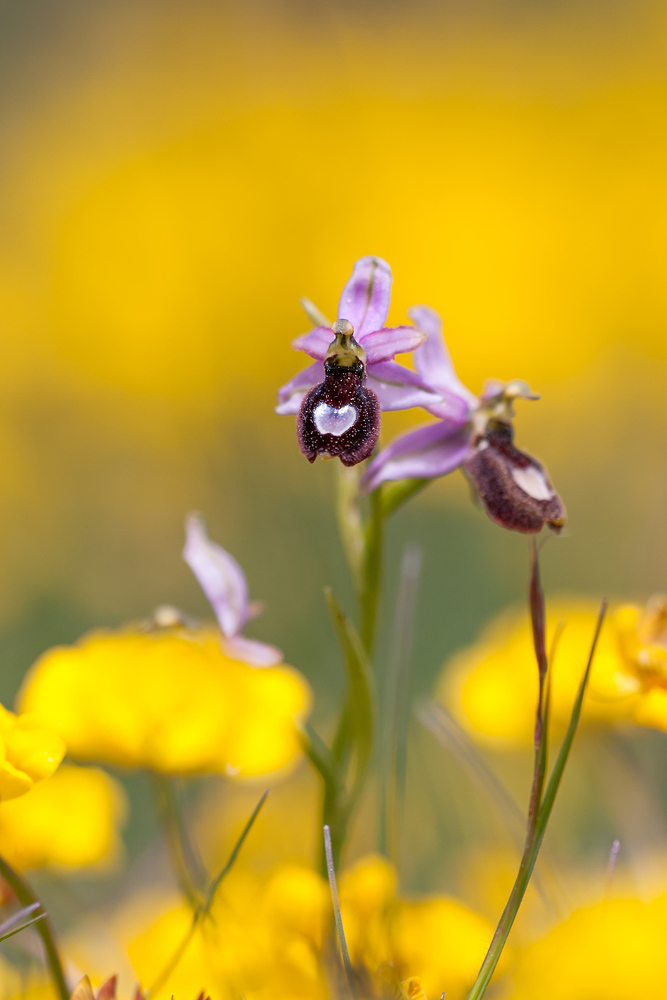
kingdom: Plantae
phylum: Tracheophyta
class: Liliopsida
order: Asparagales
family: Orchidaceae
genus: Ophrys
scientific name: Ophrys flavicans
